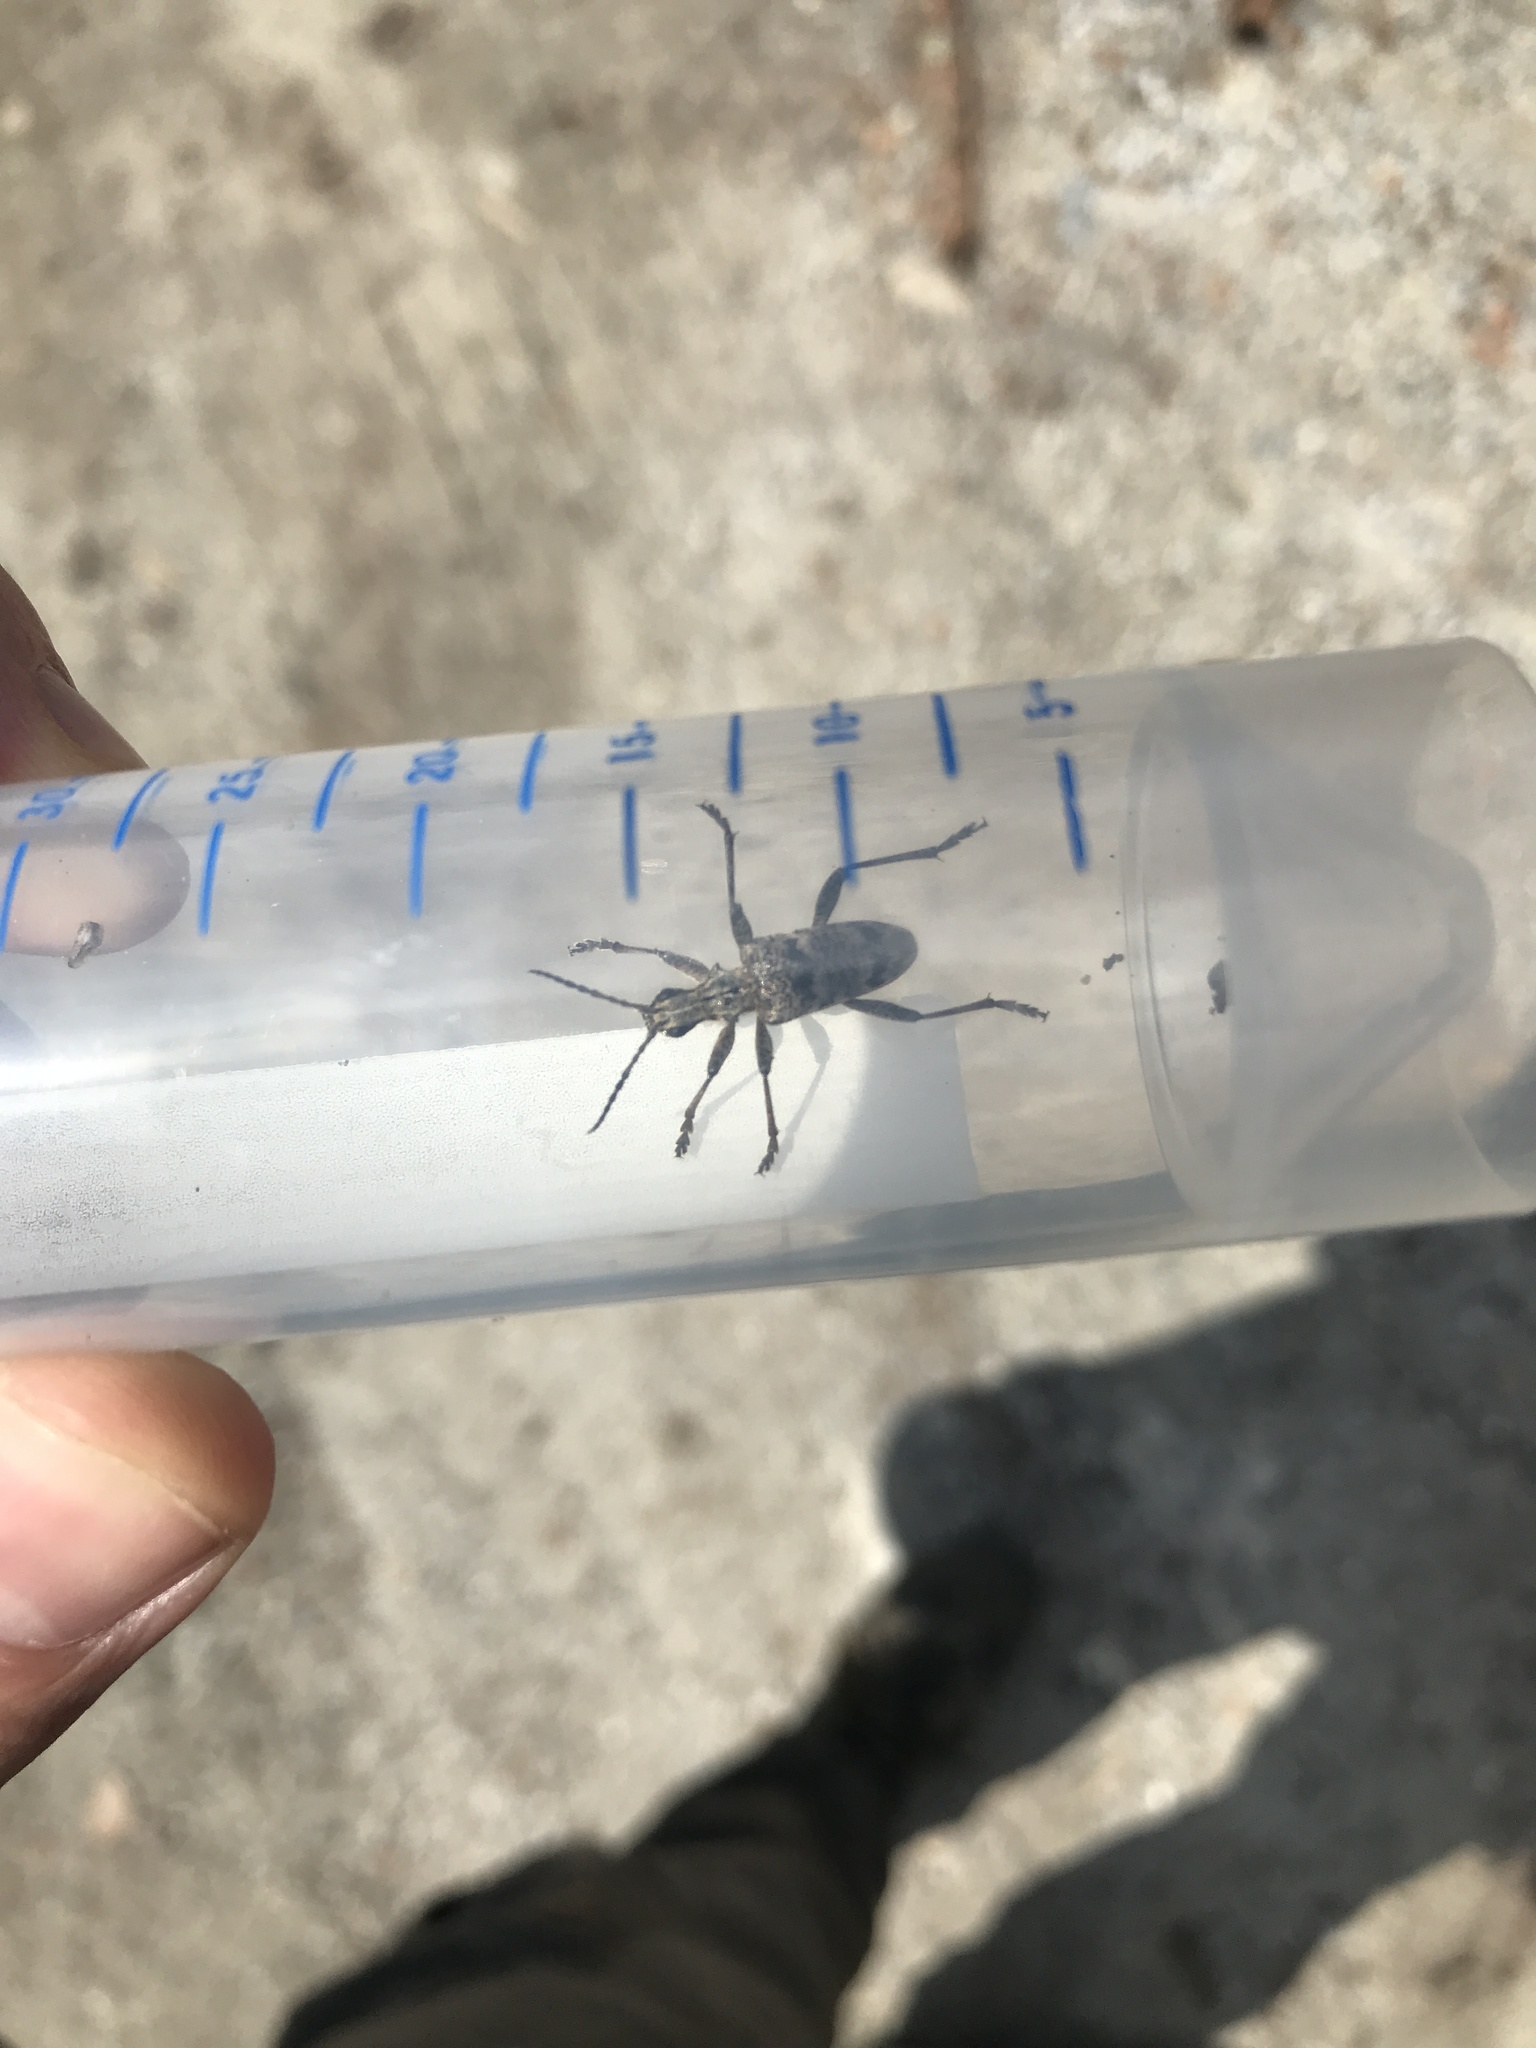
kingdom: Animalia
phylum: Arthropoda
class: Insecta
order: Coleoptera
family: Cerambycidae
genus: Rhagium
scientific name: Rhagium inquisitor
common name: Ribbed pine borer
